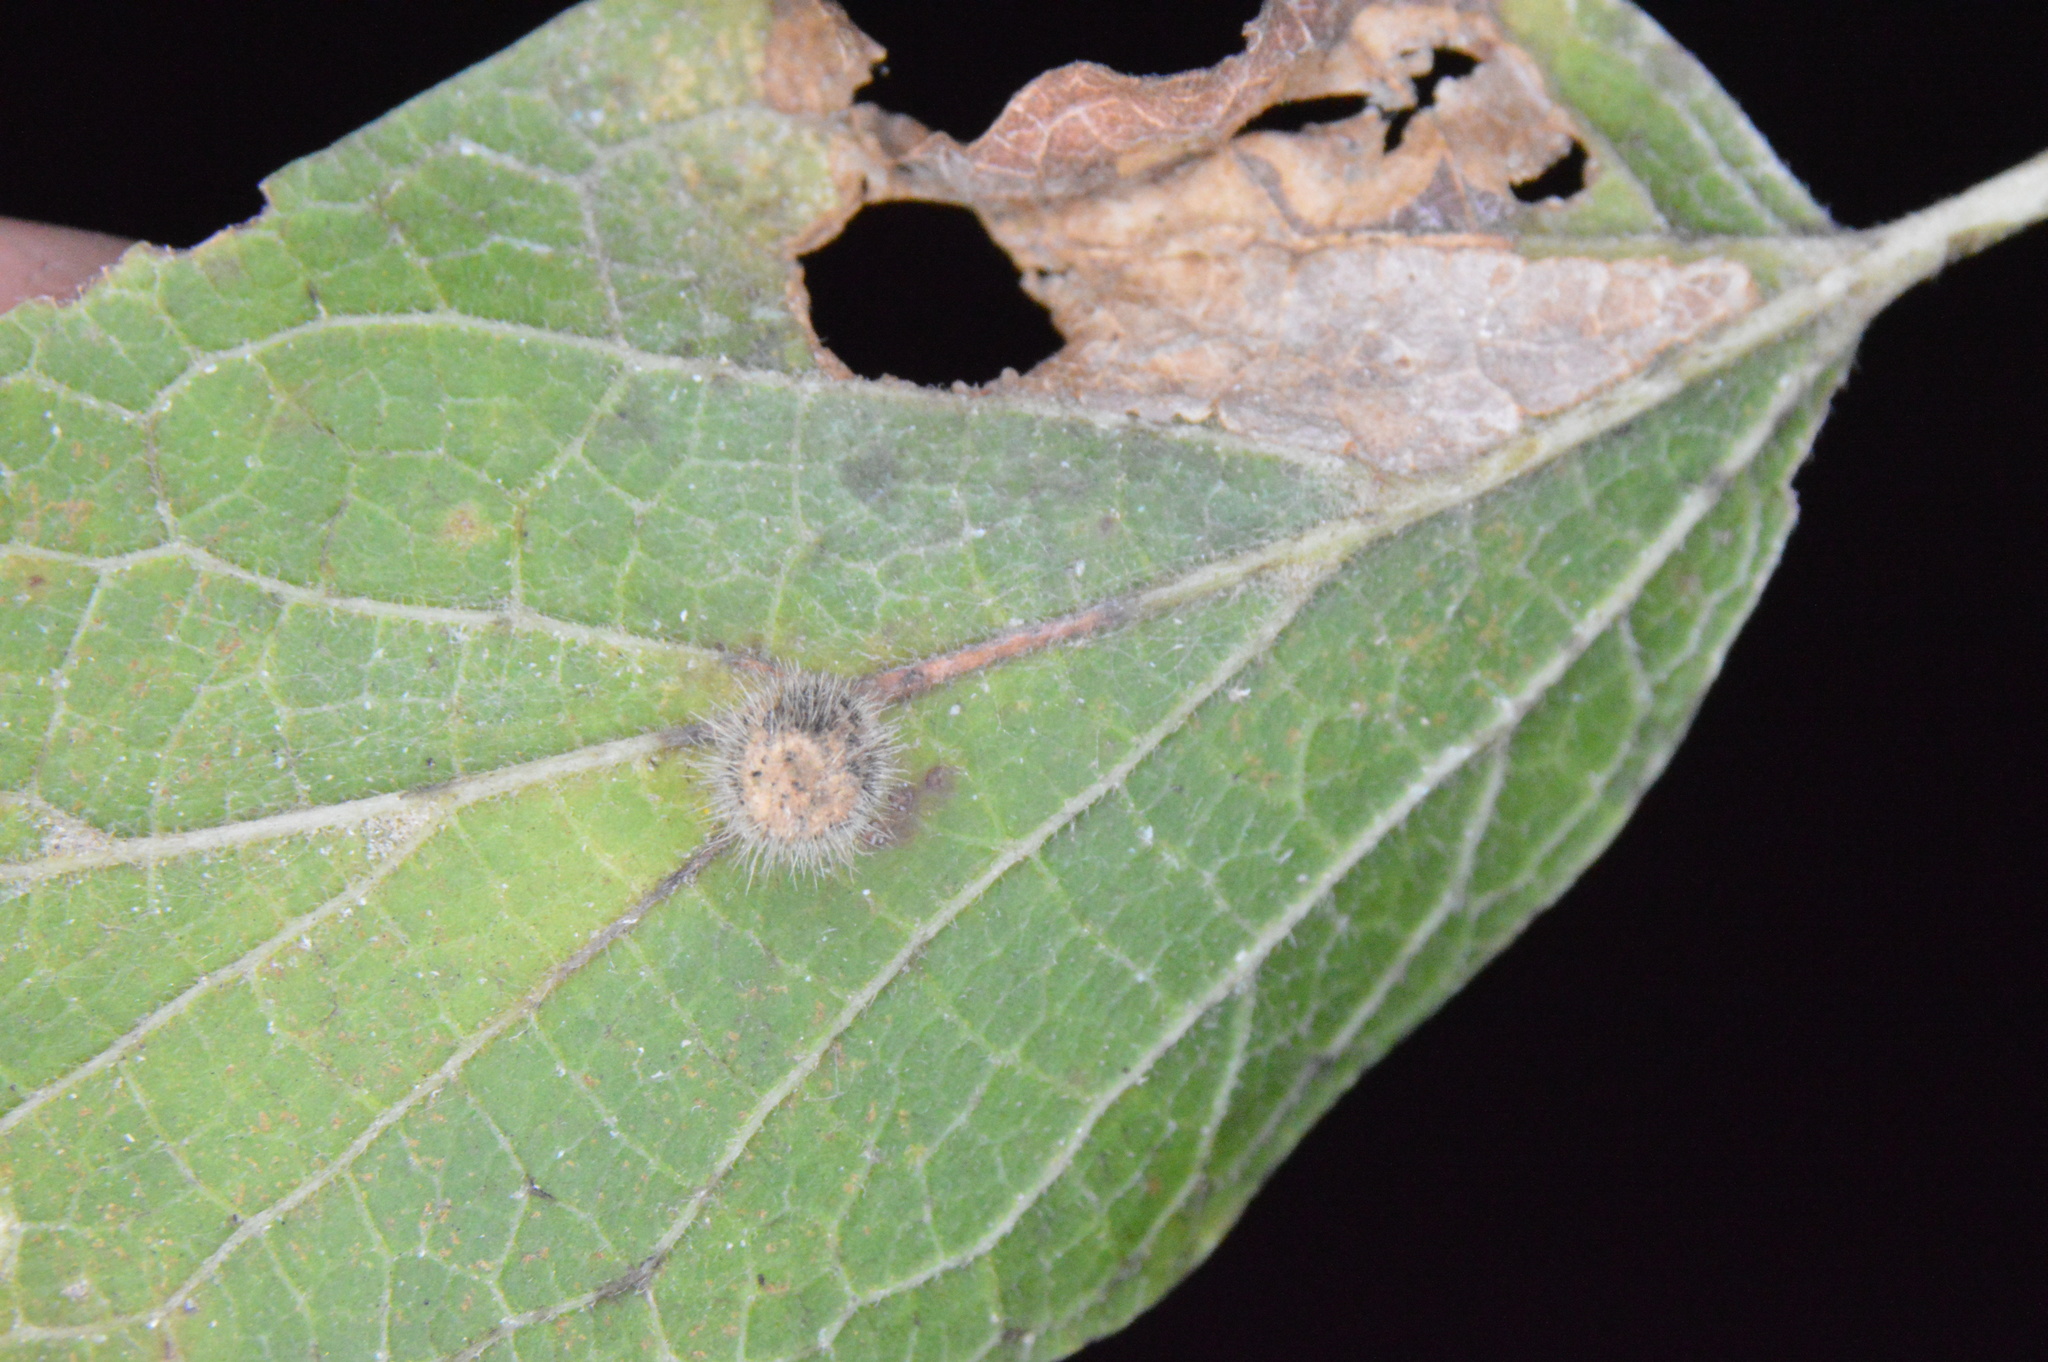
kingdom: Animalia
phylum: Arthropoda
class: Insecta
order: Diptera
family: Cecidomyiidae
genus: Celticecis
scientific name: Celticecis pubescens
